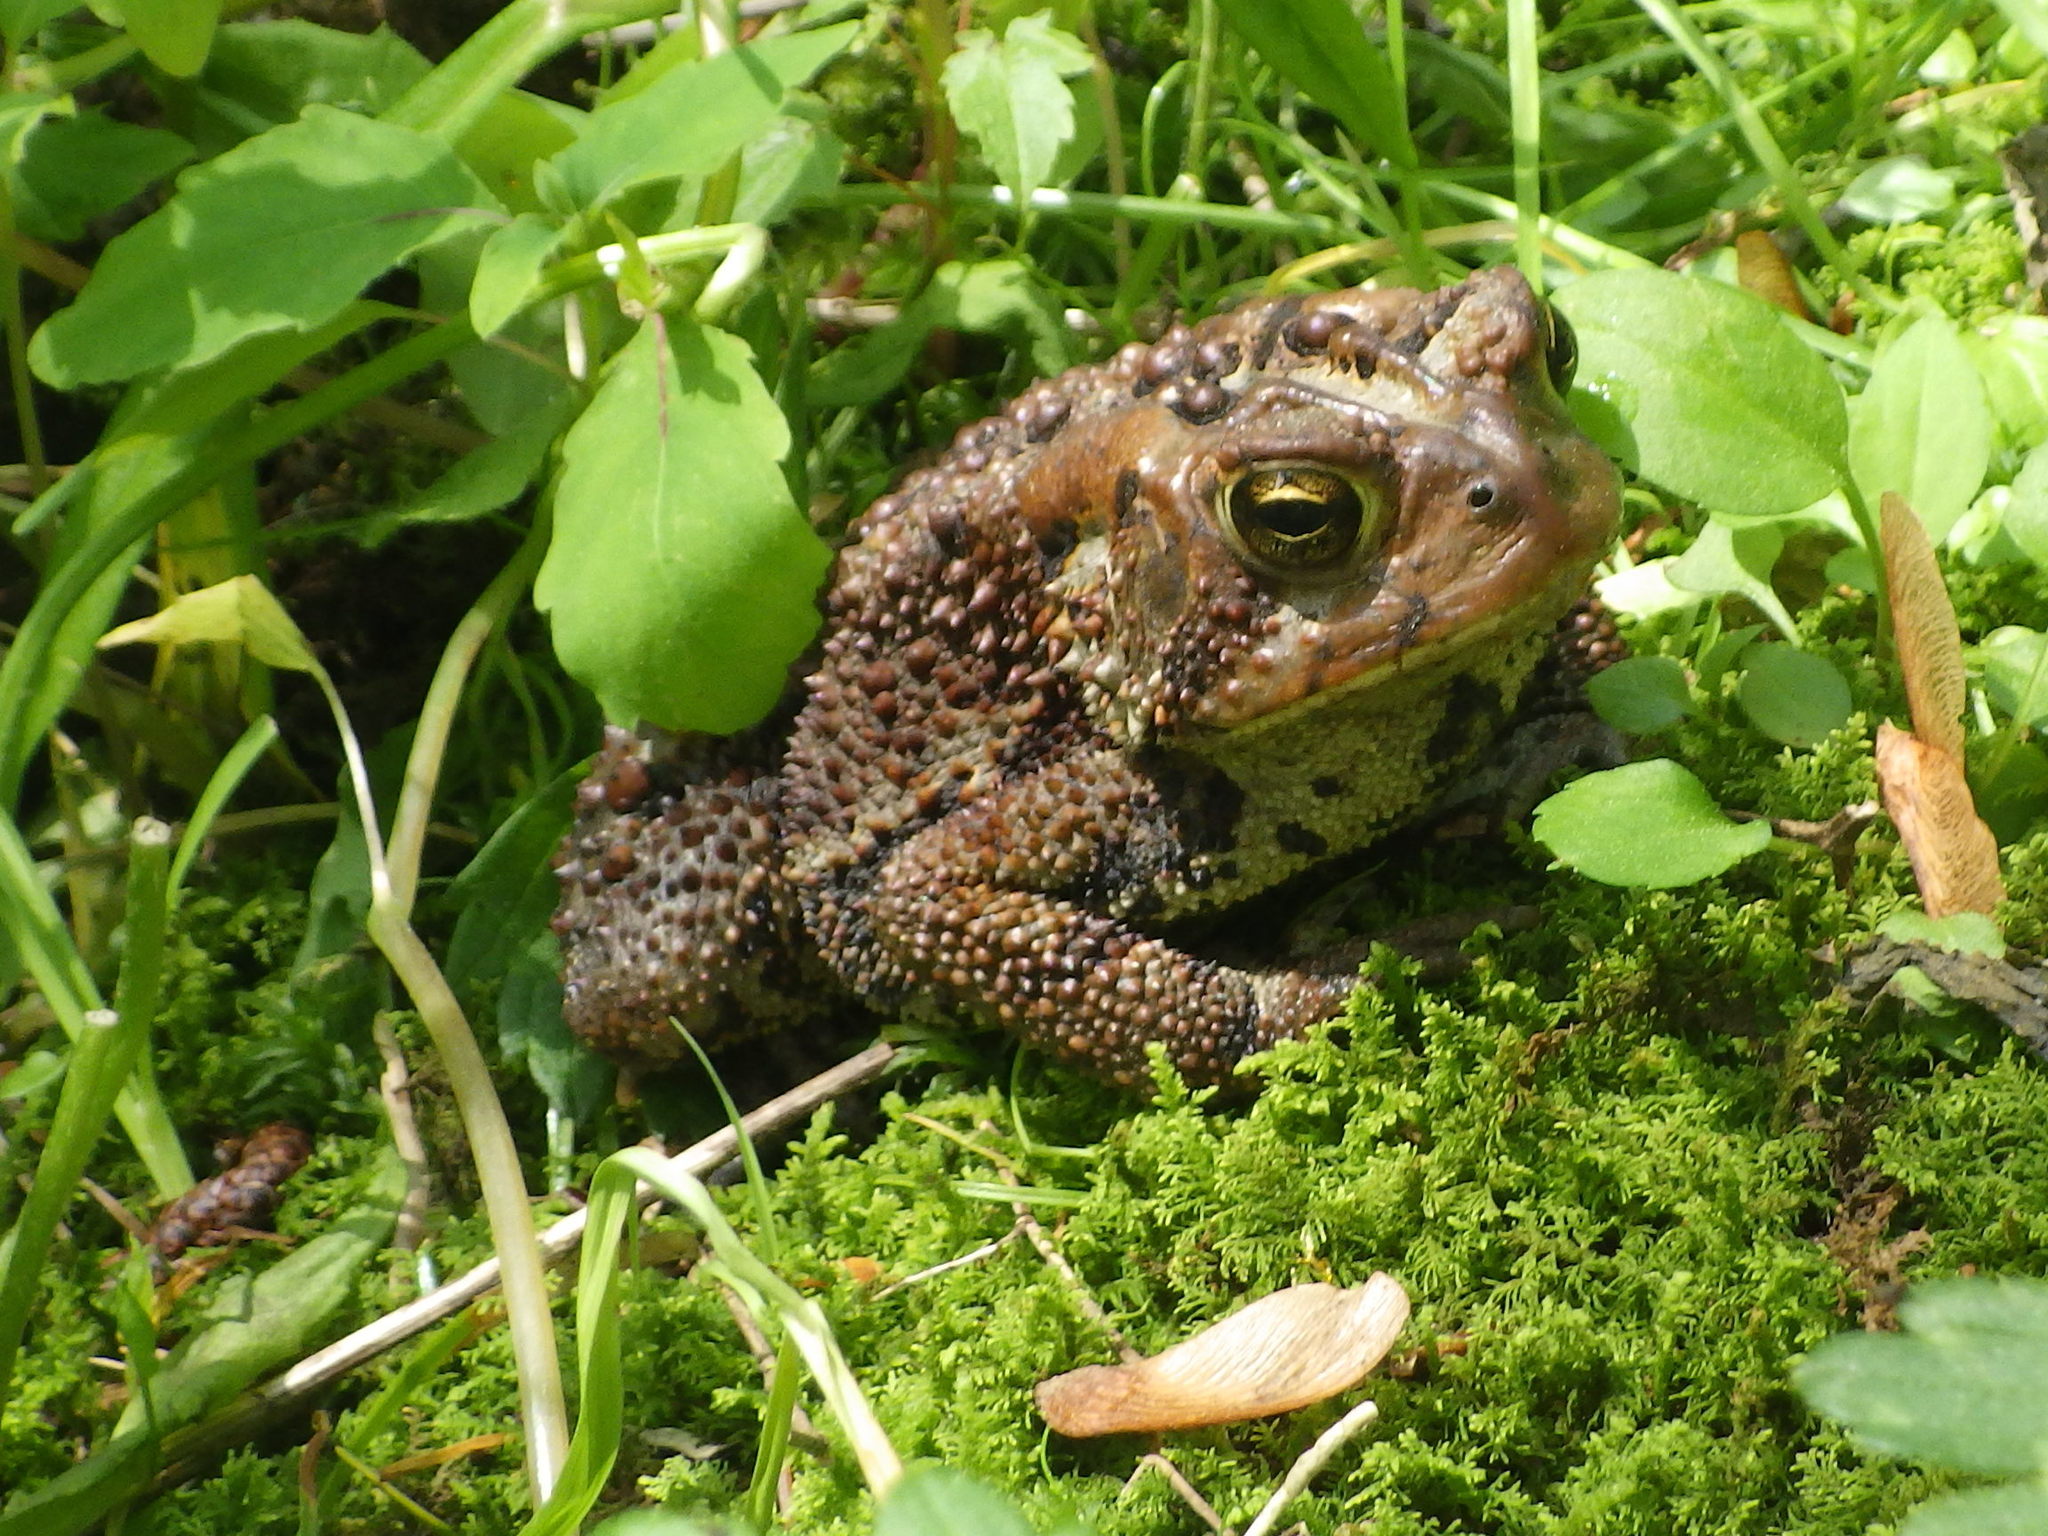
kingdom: Animalia
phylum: Chordata
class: Amphibia
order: Anura
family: Bufonidae
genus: Anaxyrus
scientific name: Anaxyrus americanus
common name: American toad
